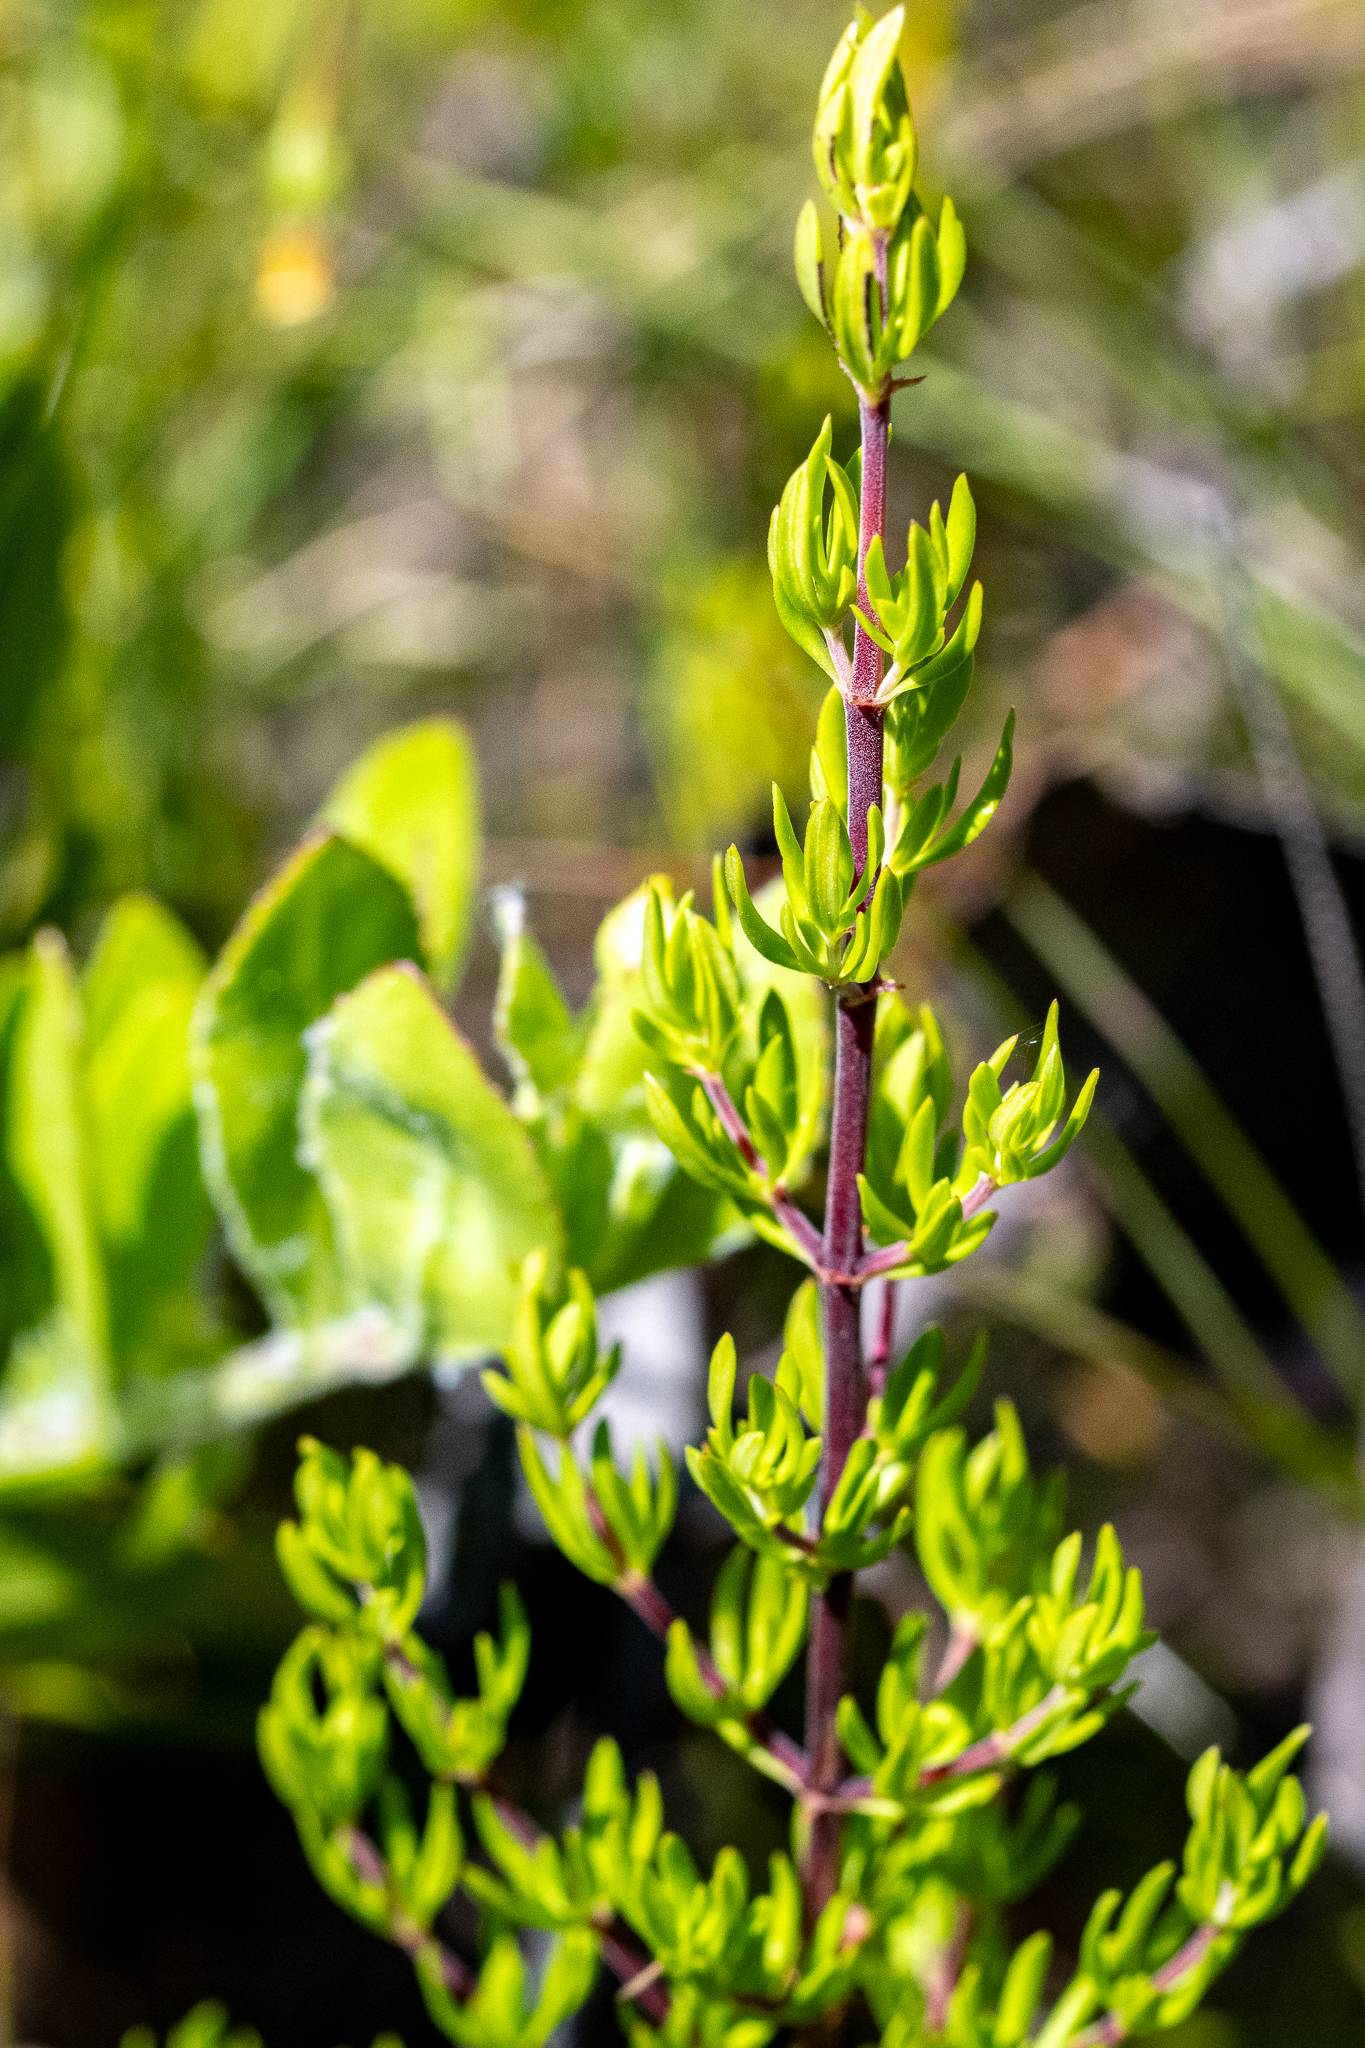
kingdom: Plantae
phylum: Tracheophyta
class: Magnoliopsida
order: Gentianales
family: Rubiaceae
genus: Anthospermum
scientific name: Anthospermum aethiopicum
